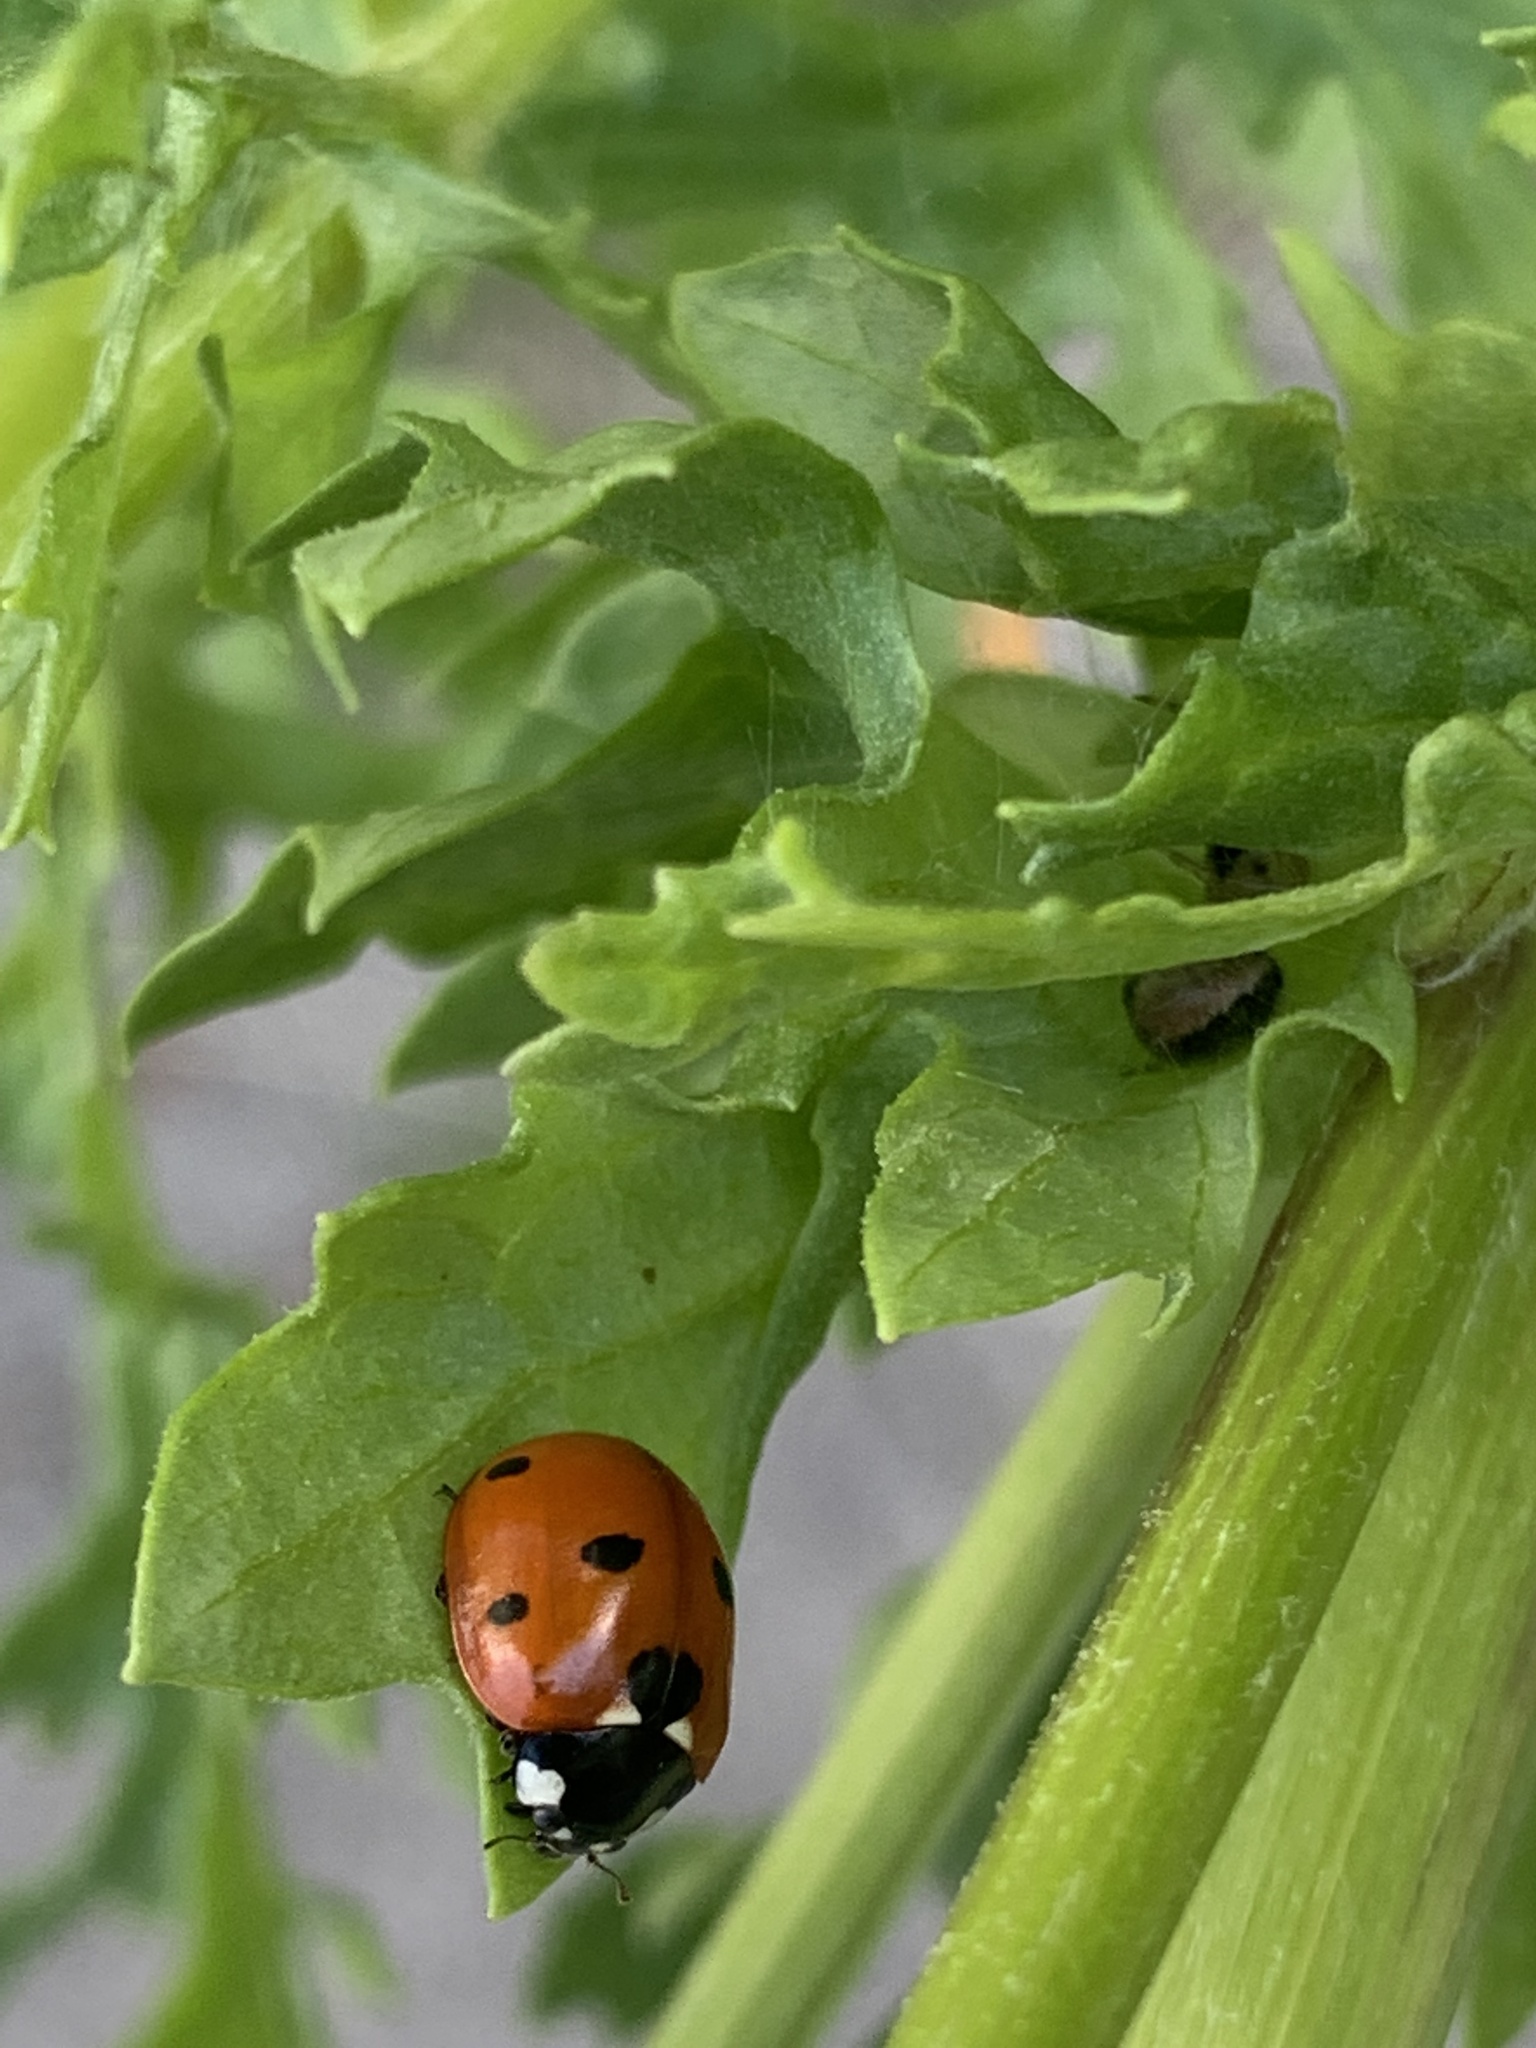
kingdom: Animalia
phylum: Arthropoda
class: Insecta
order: Coleoptera
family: Coccinellidae
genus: Coccinella
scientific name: Coccinella septempunctata
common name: Sevenspotted lady beetle
